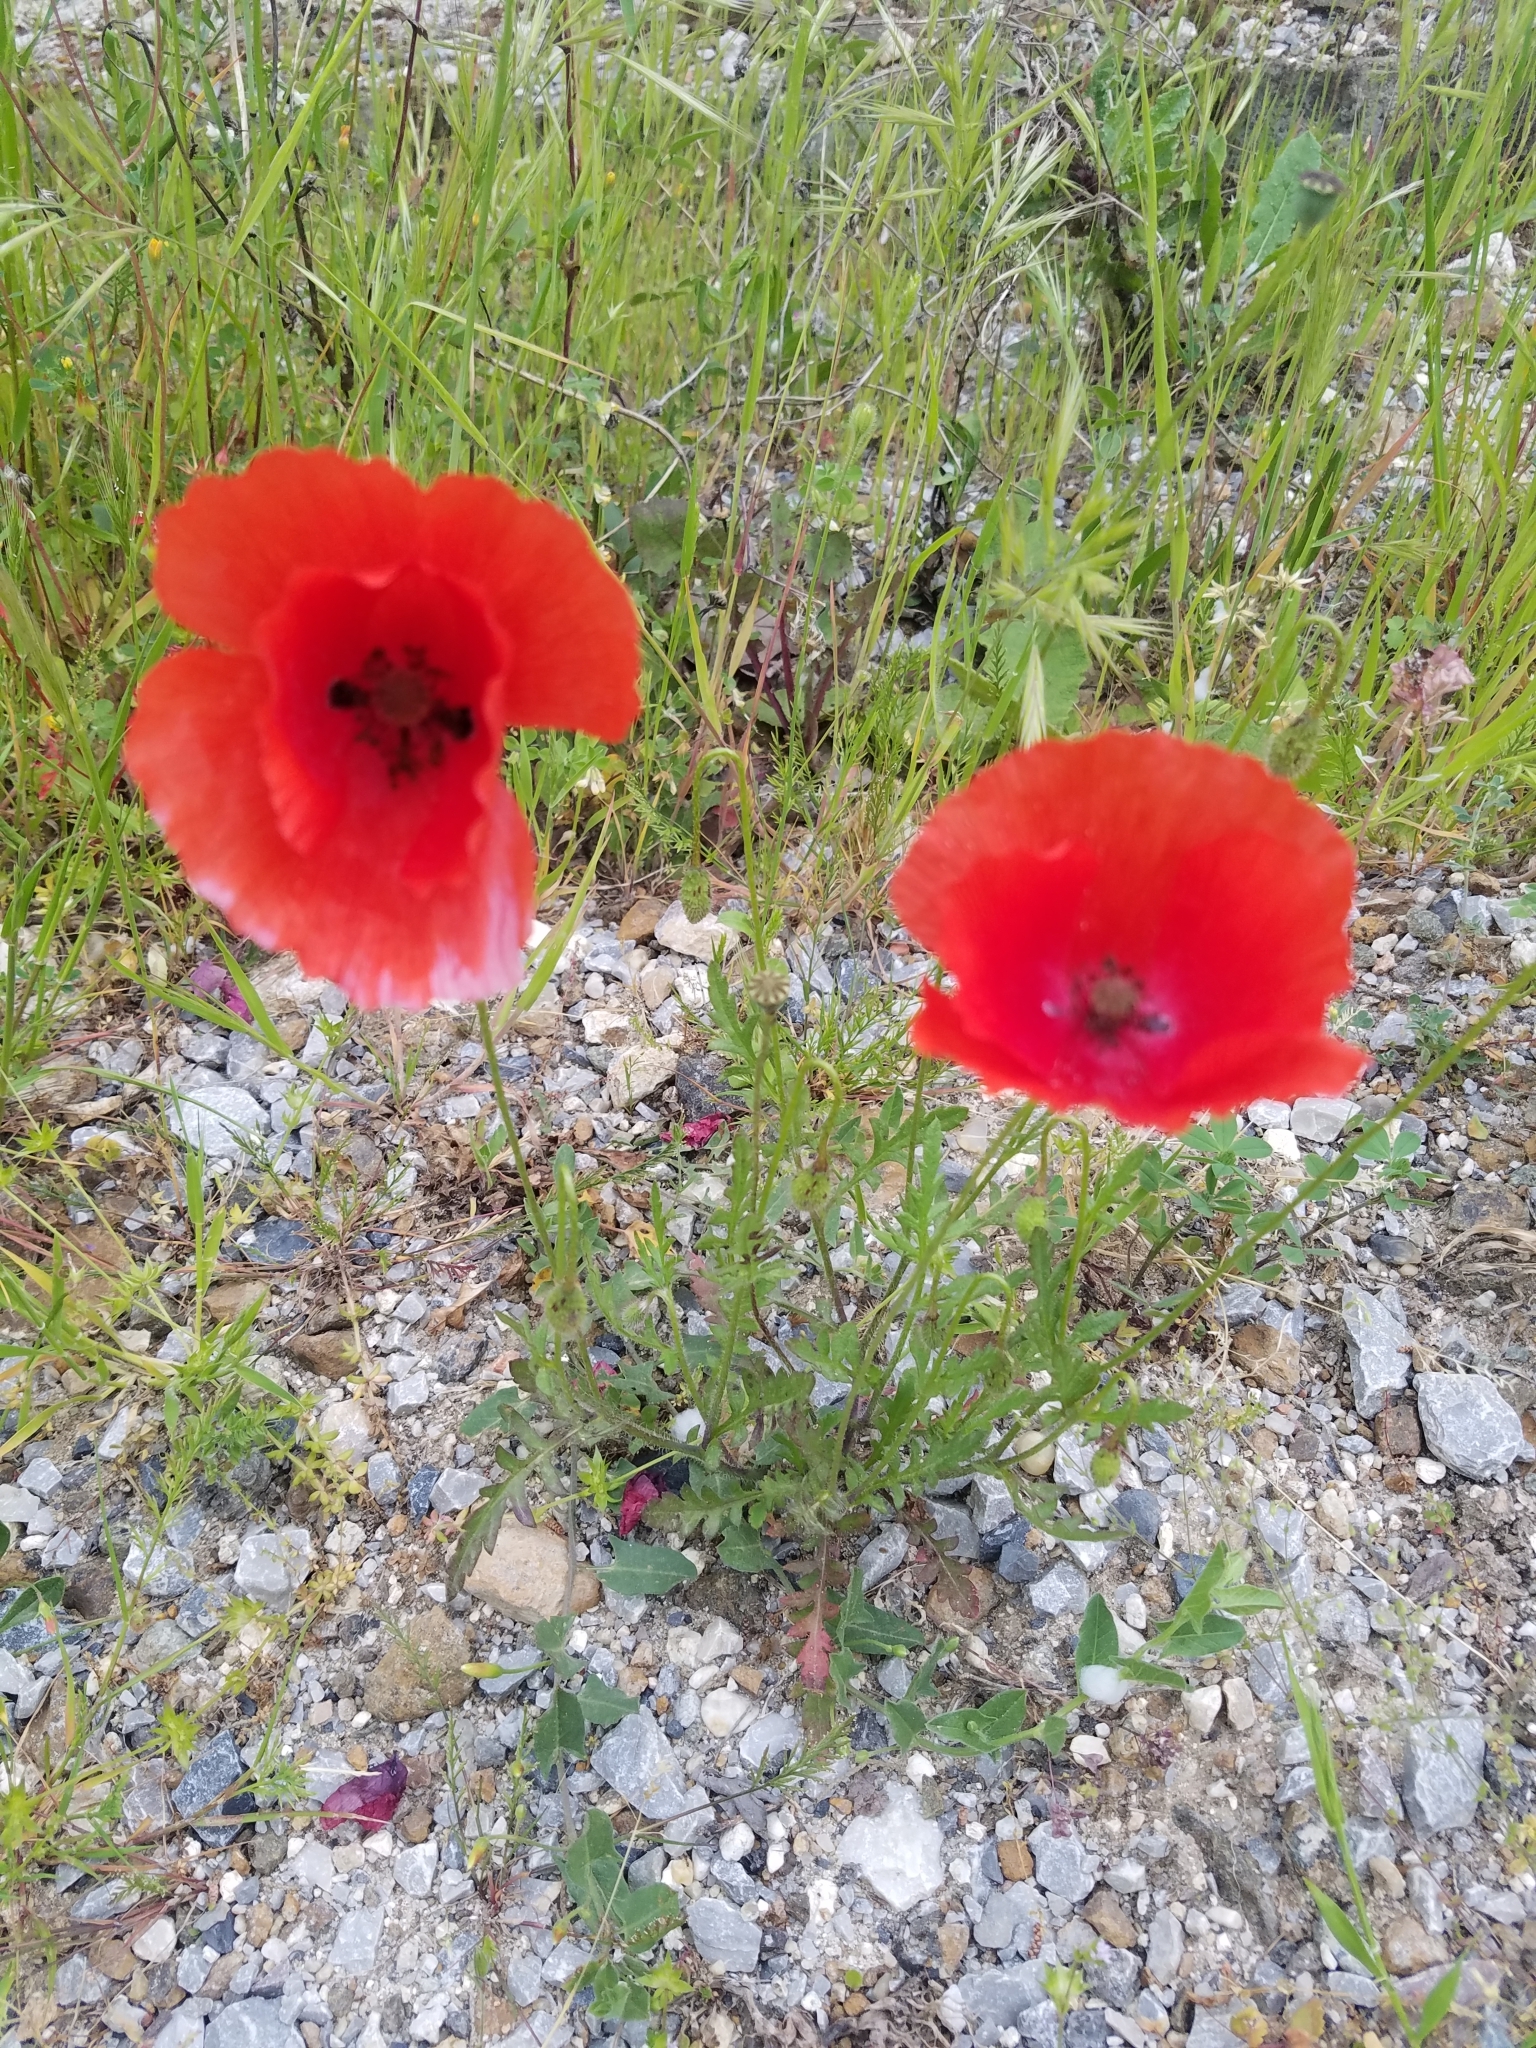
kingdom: Plantae
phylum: Tracheophyta
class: Magnoliopsida
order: Ranunculales
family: Papaveraceae
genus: Papaver
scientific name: Papaver rhoeas
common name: Corn poppy
